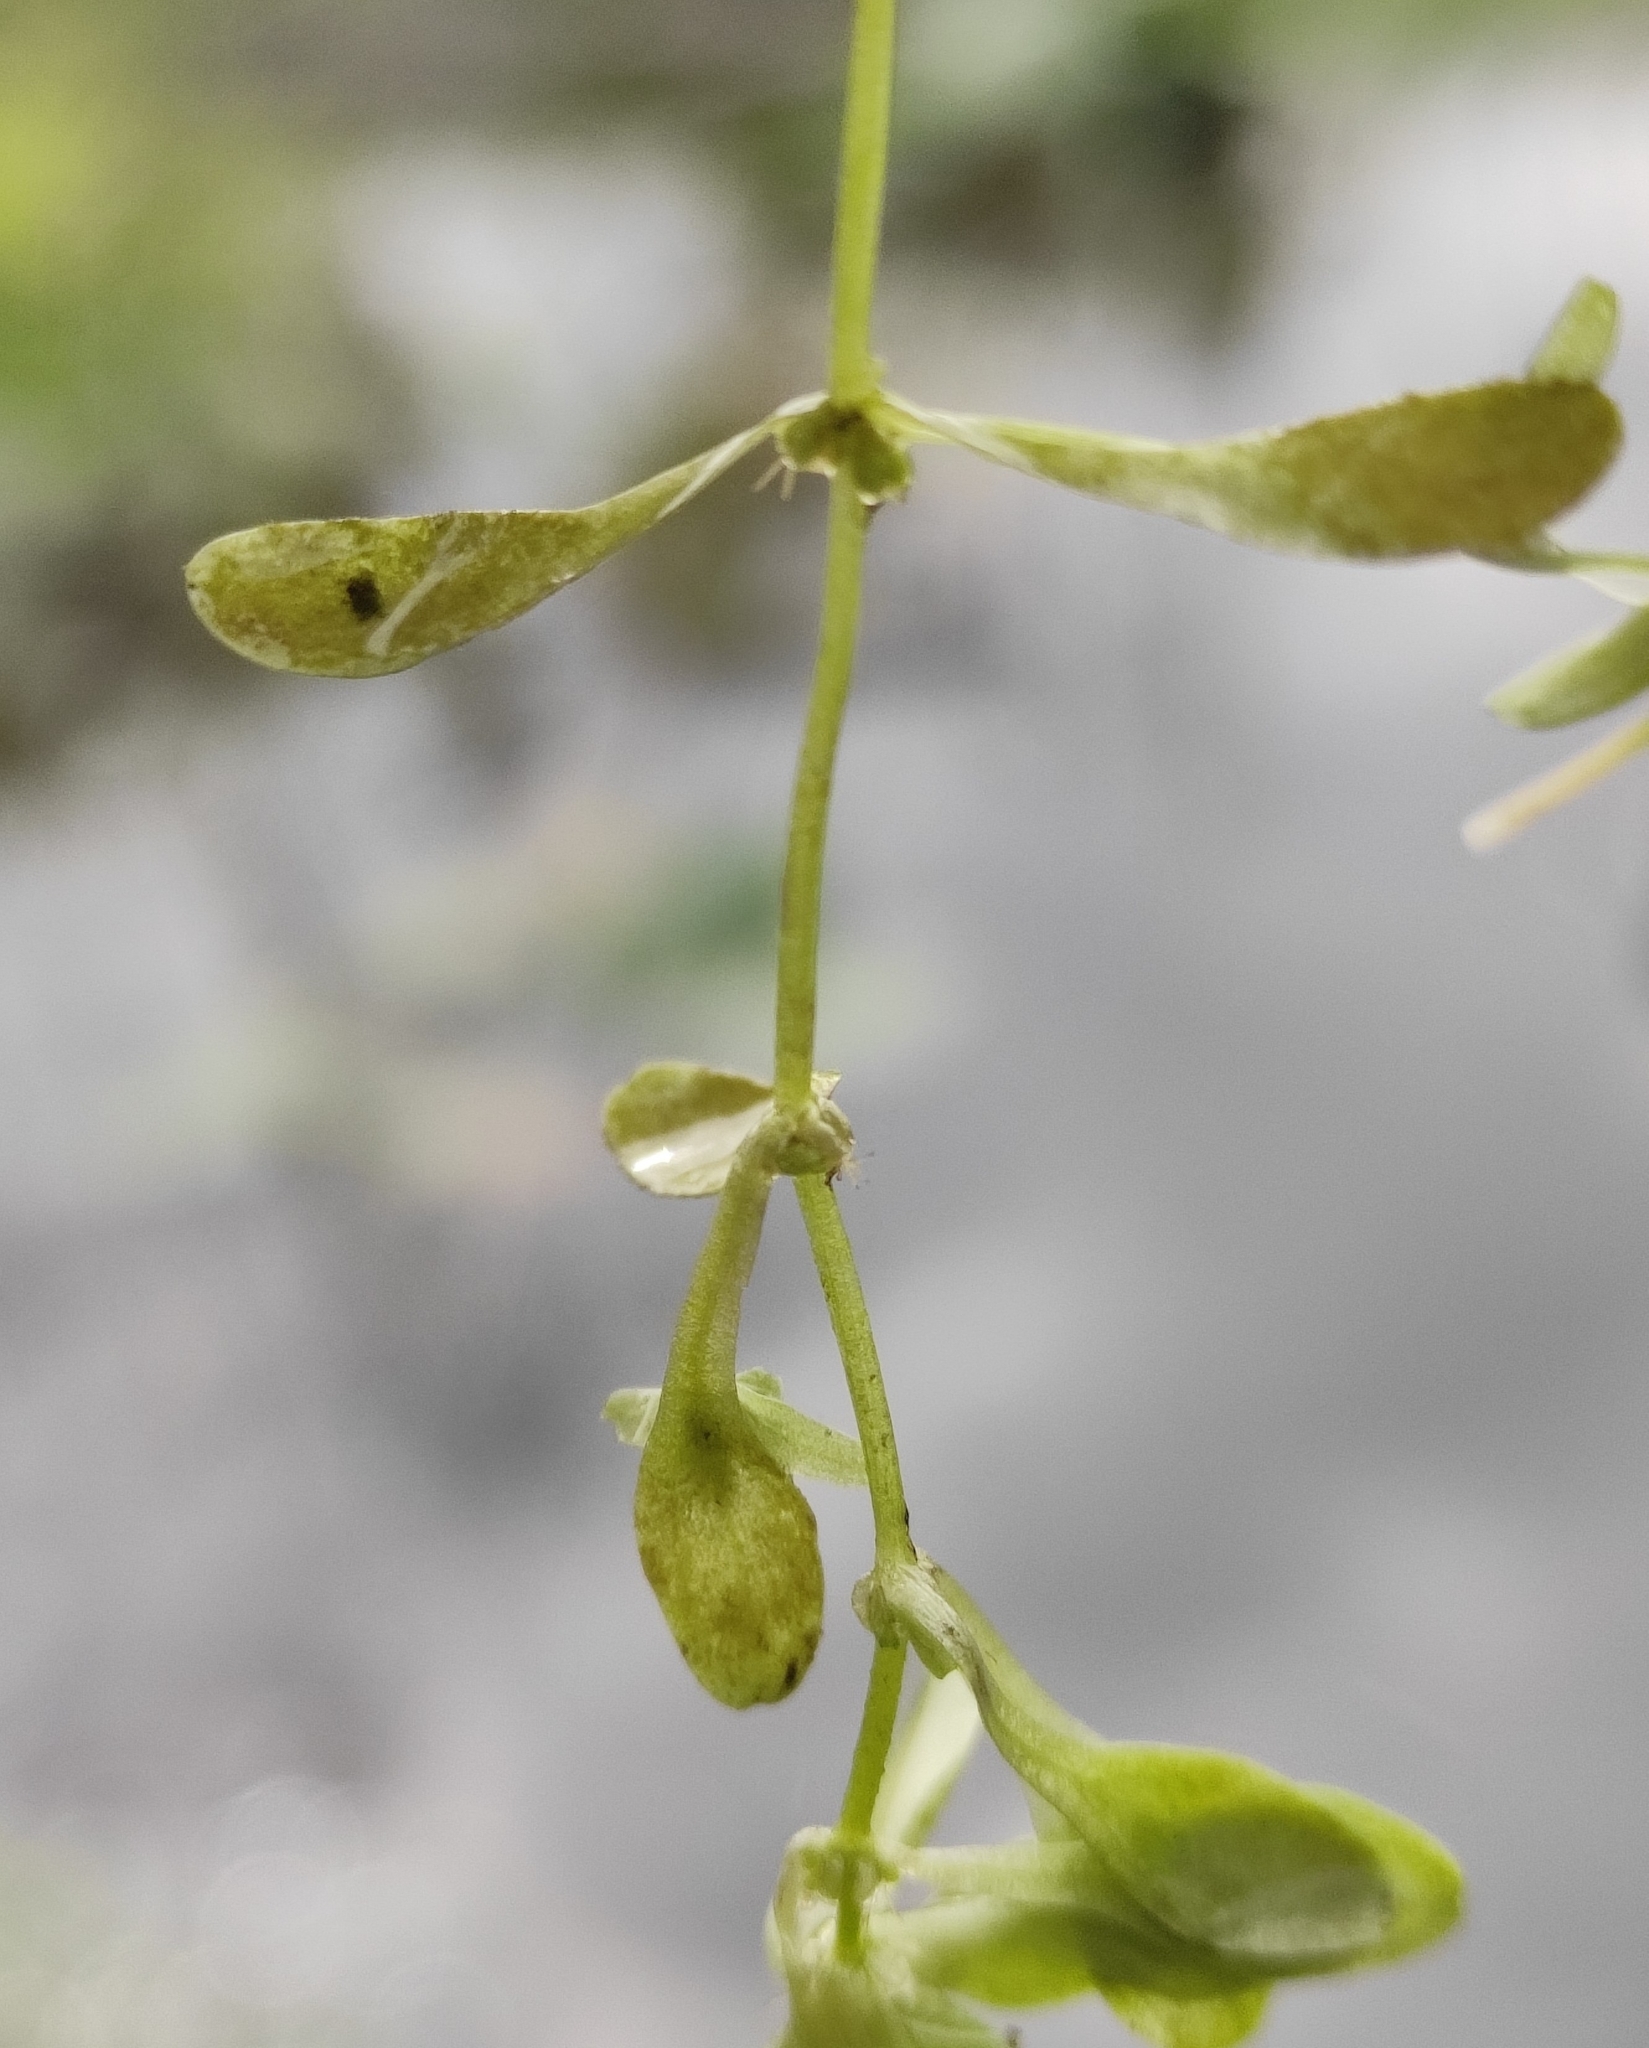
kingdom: Plantae
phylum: Tracheophyta
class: Magnoliopsida
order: Lamiales
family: Plantaginaceae
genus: Callitriche
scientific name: Callitriche palustris
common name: Spring water-starwort
